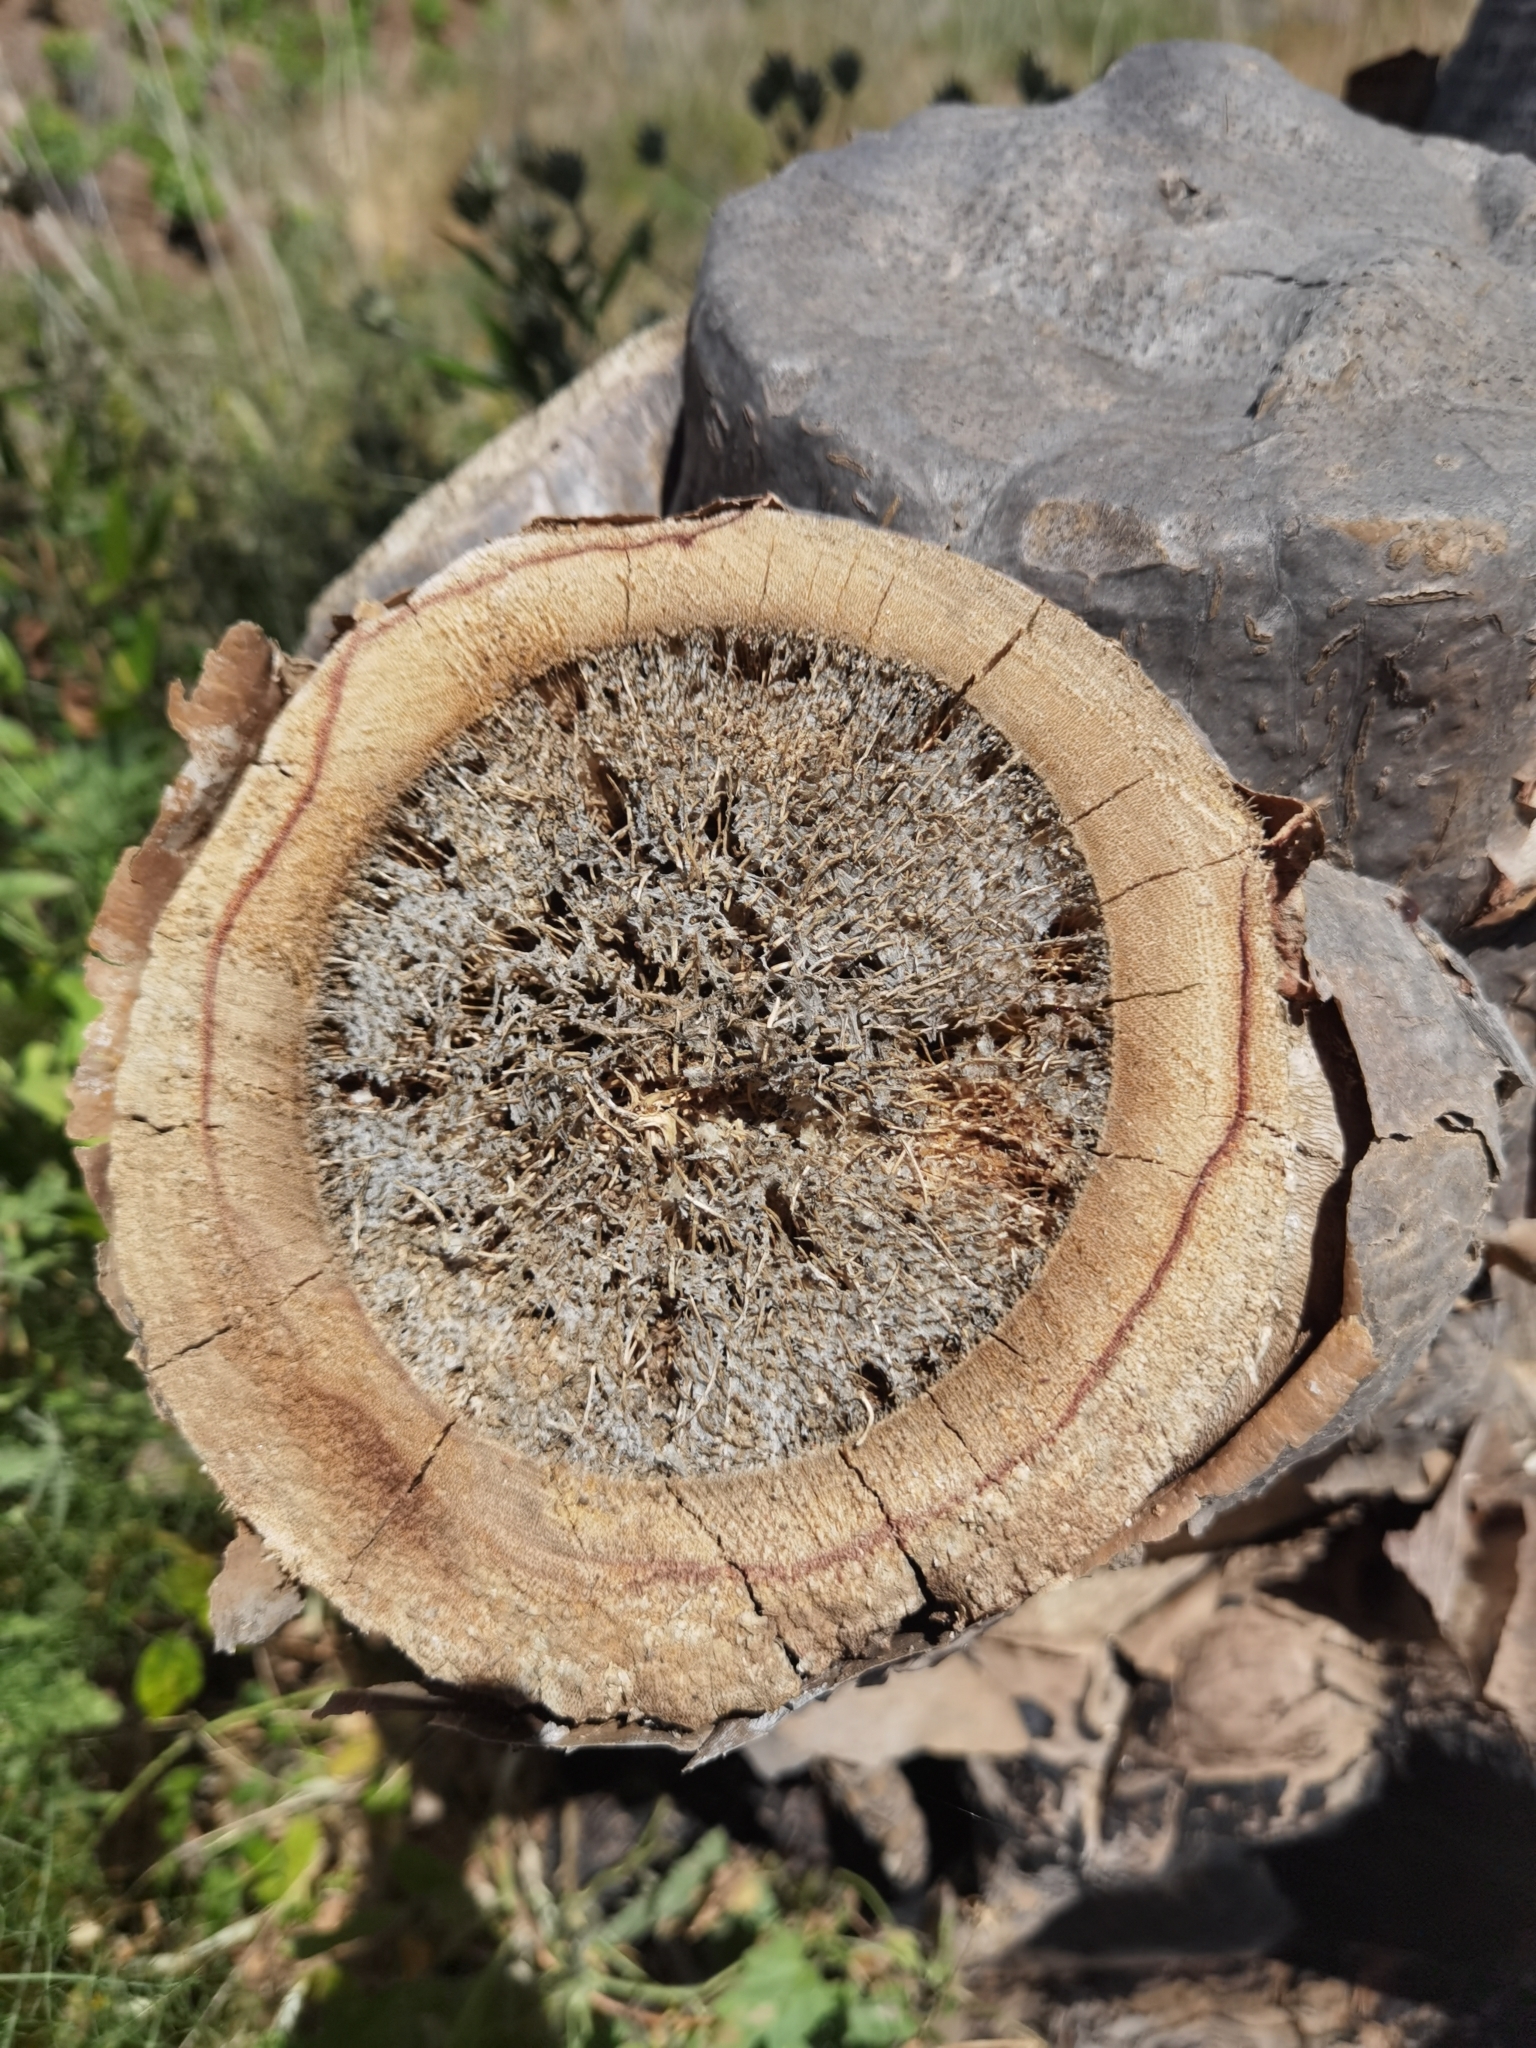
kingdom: Plantae
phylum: Tracheophyta
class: Liliopsida
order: Asparagales
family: Asparagaceae
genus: Dracaena
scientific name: Dracaena draco
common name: Canary island dragon tree
